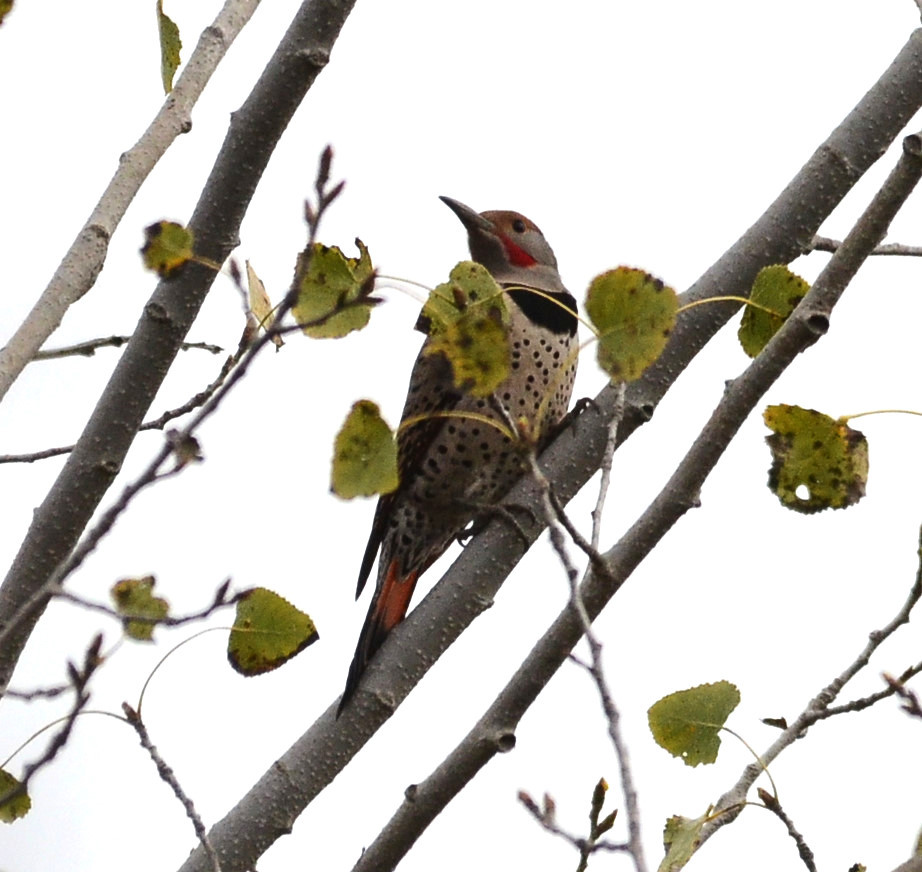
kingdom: Animalia
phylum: Chordata
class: Aves
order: Piciformes
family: Picidae
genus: Colaptes
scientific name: Colaptes auratus
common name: Northern flicker
